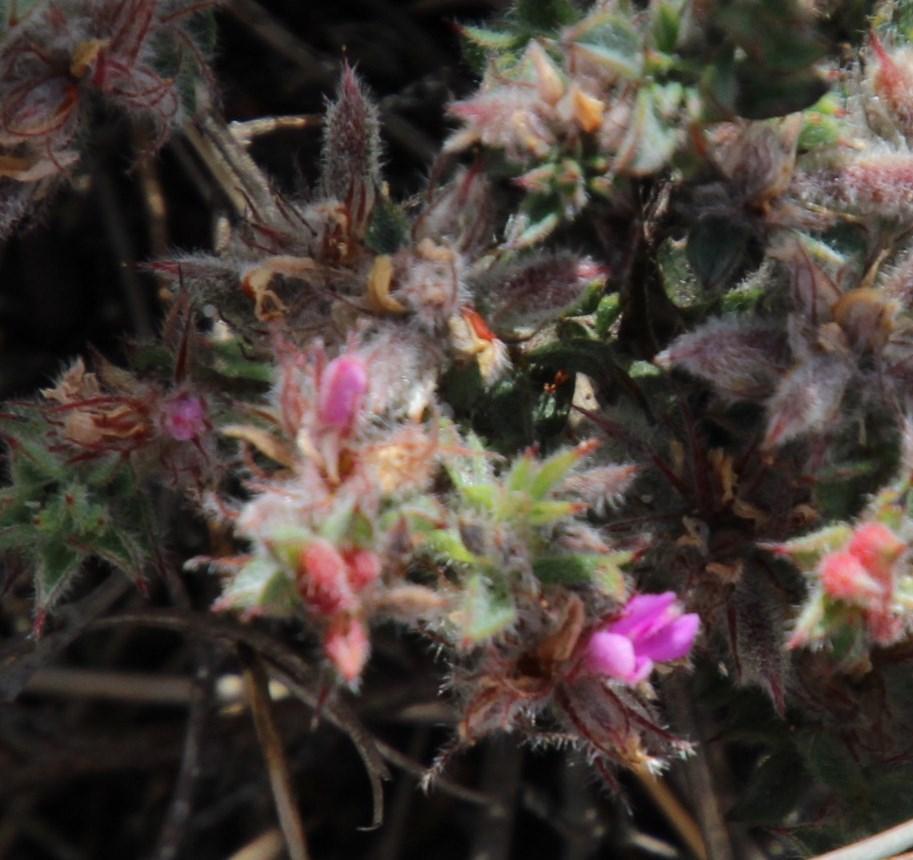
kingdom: Plantae
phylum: Tracheophyta
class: Magnoliopsida
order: Fabales
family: Fabaceae
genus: Indigofera
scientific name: Indigofera glomerata
